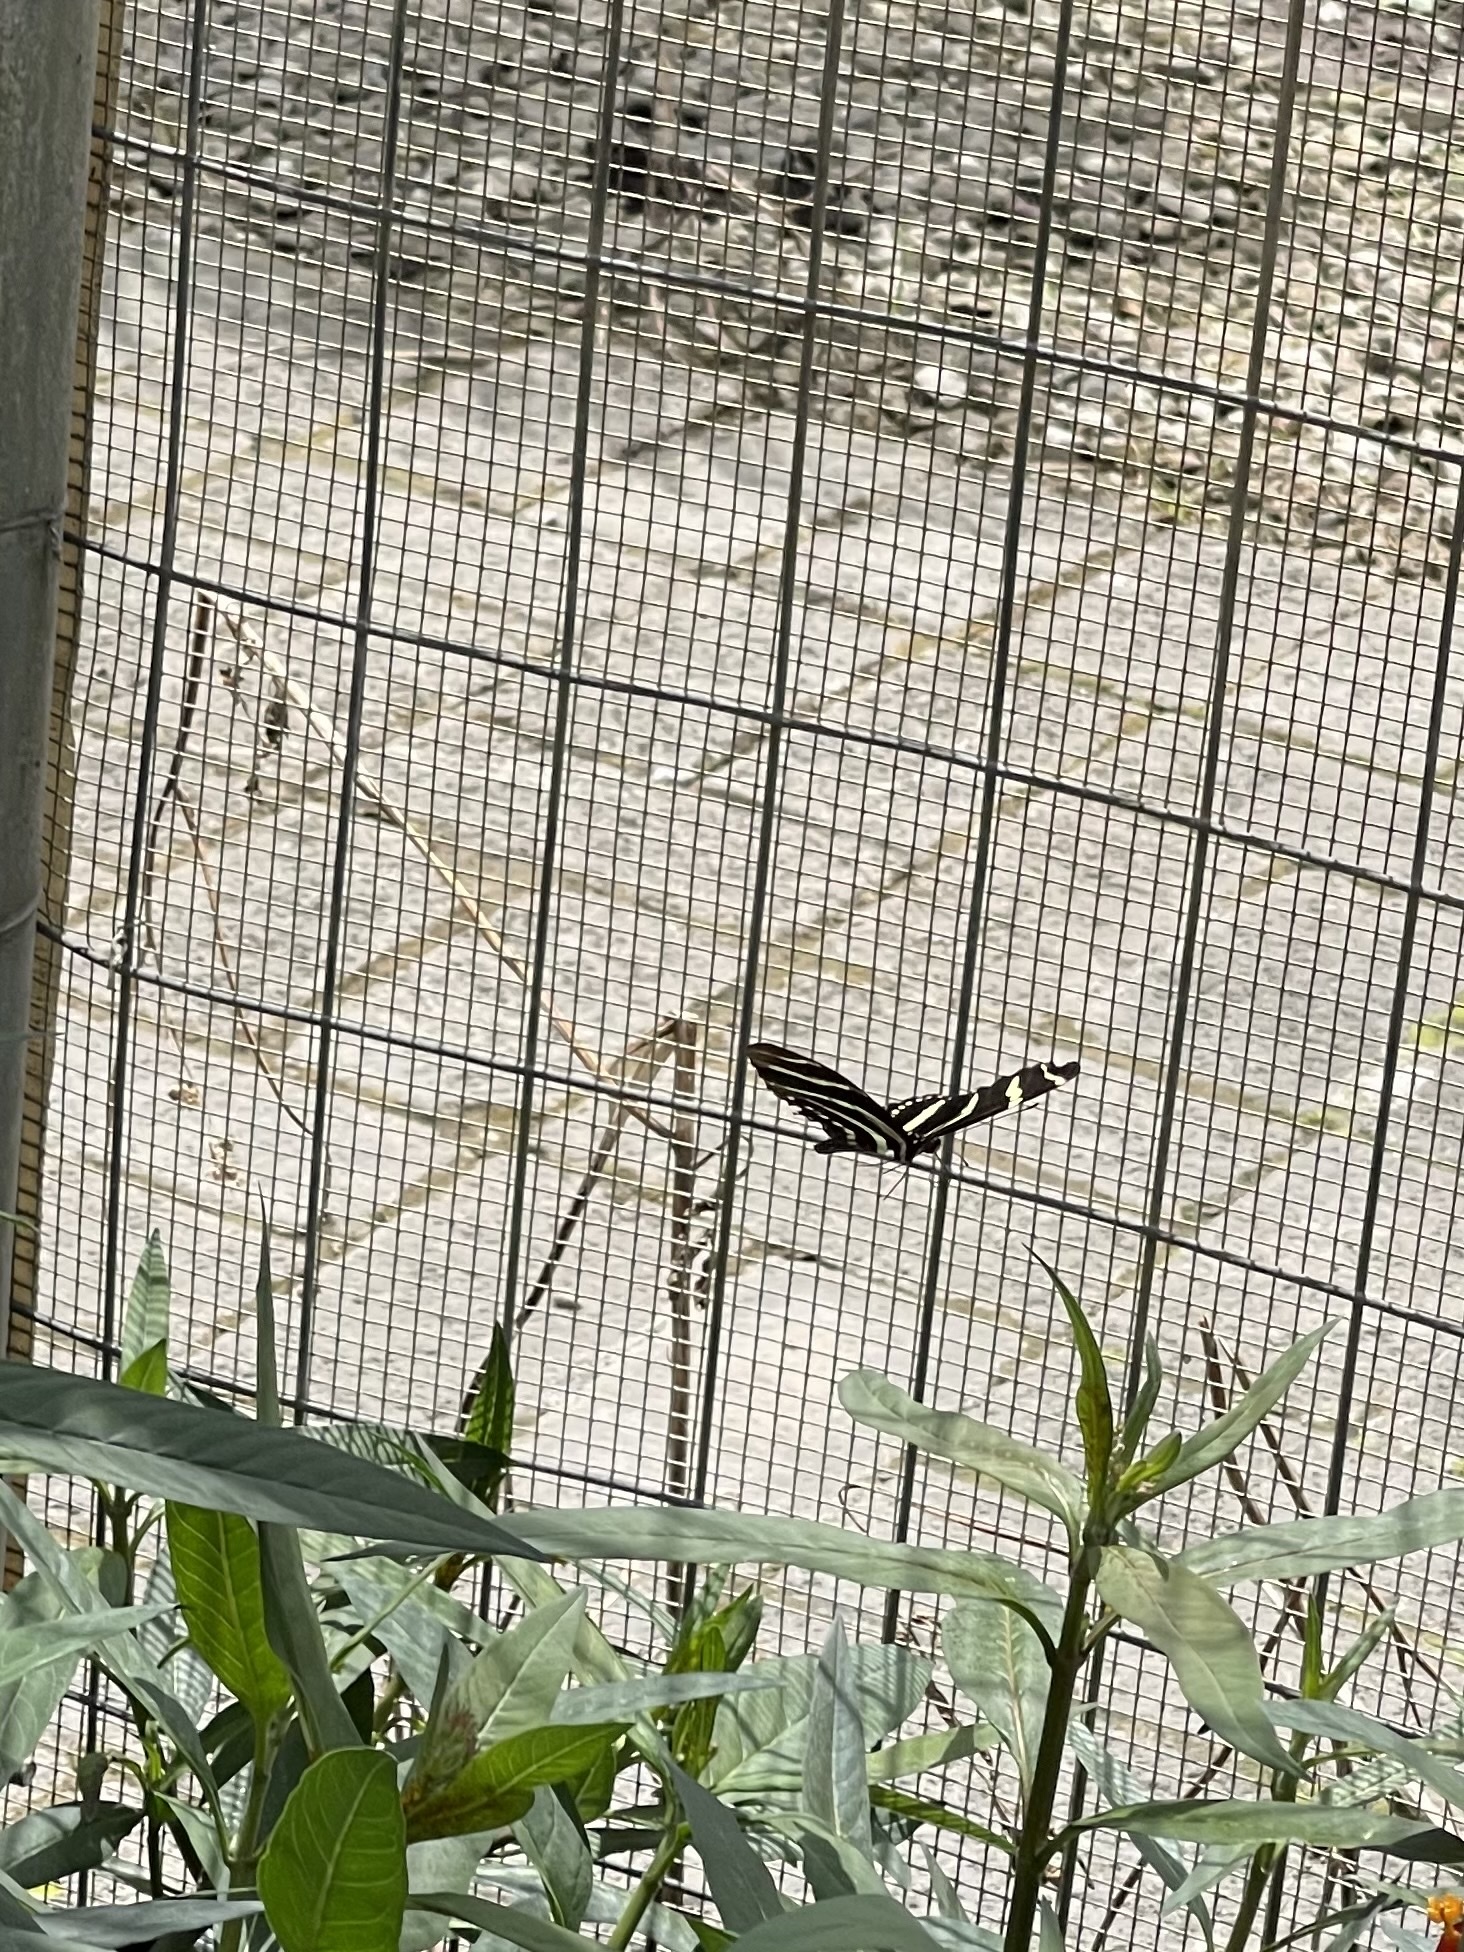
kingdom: Animalia
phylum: Arthropoda
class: Insecta
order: Lepidoptera
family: Nymphalidae
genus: Heliconius
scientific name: Heliconius charithonia
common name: Zebra long wing
